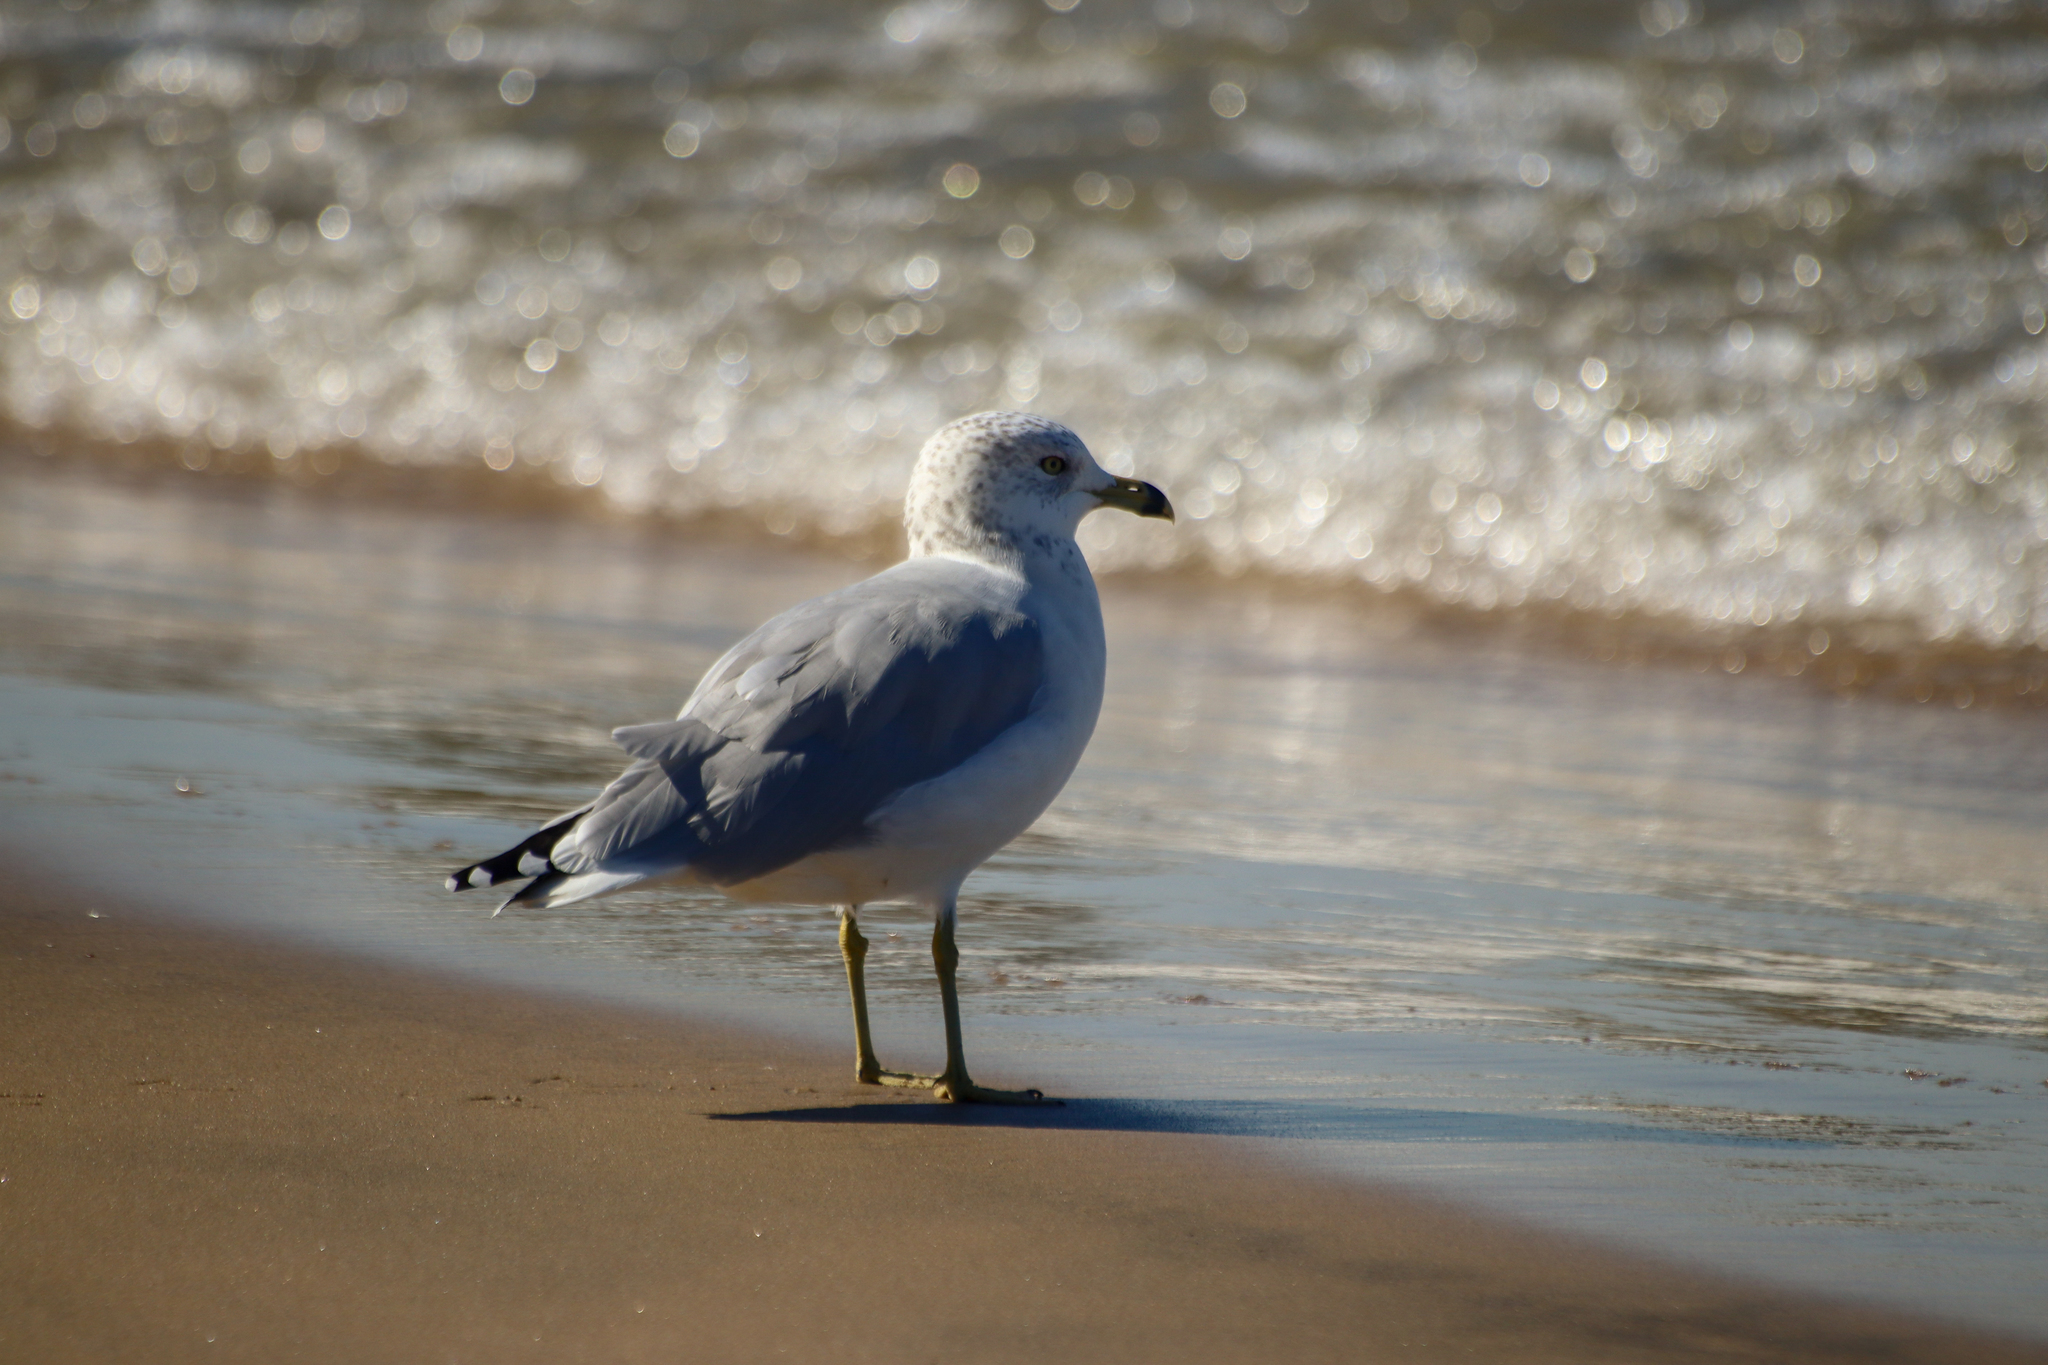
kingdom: Animalia
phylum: Chordata
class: Aves
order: Charadriiformes
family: Laridae
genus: Larus
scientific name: Larus delawarensis
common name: Ring-billed gull
